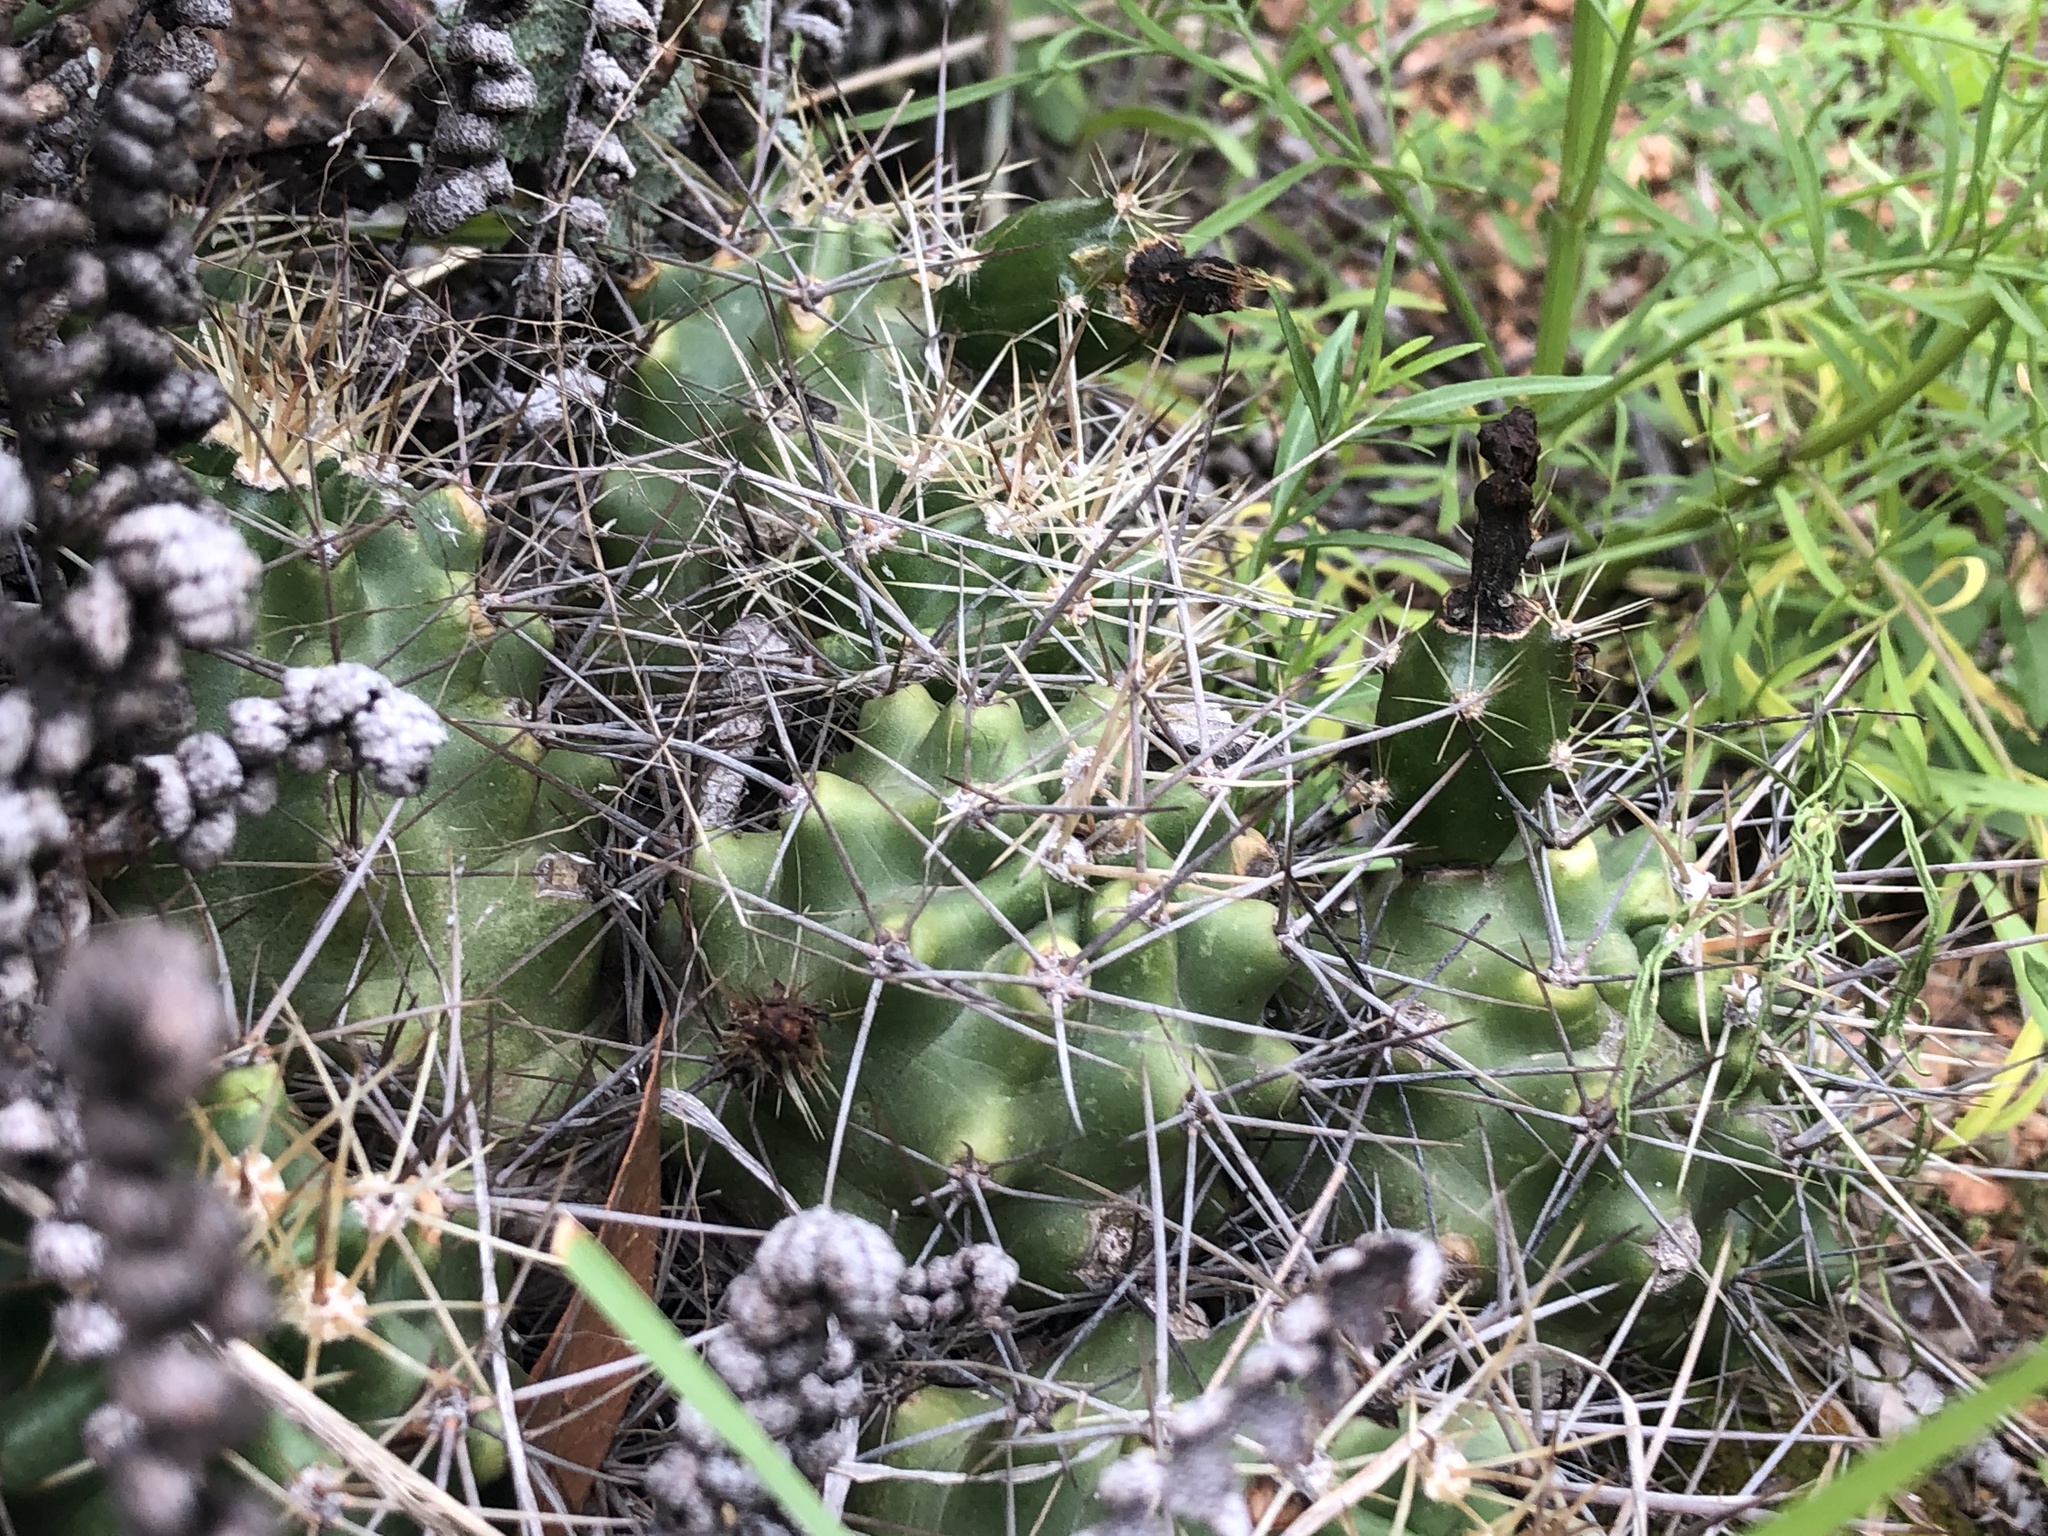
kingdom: Plantae
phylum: Tracheophyta
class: Magnoliopsida
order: Caryophyllales
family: Cactaceae
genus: Echinocereus
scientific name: Echinocereus coccineus
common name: Scarlet hedgehog cactus
